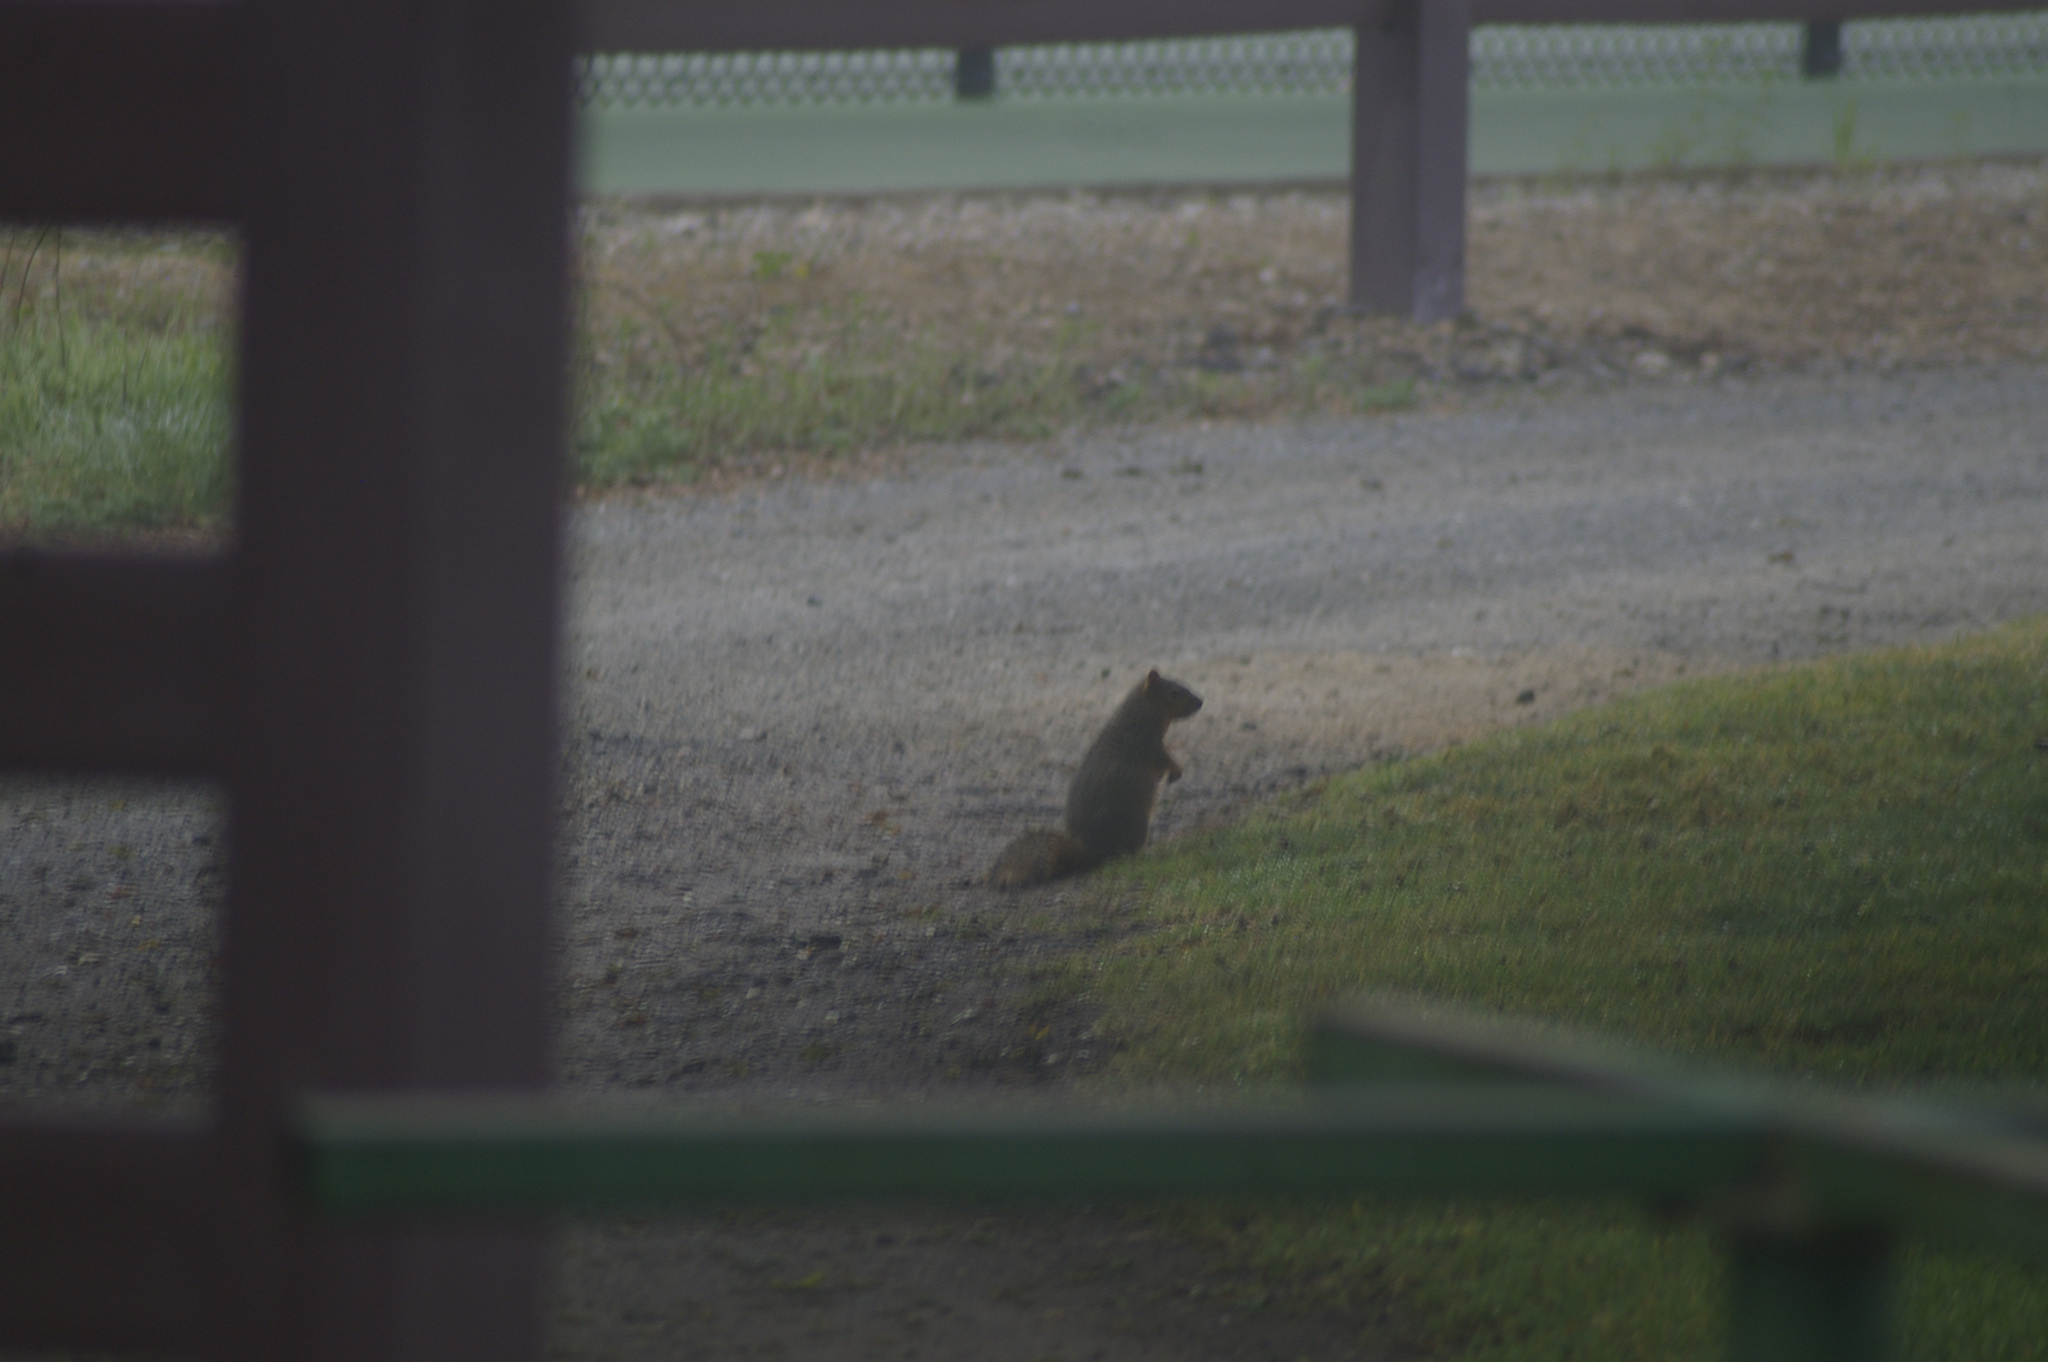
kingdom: Animalia
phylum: Chordata
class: Mammalia
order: Rodentia
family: Sciuridae
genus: Sciurus
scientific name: Sciurus niger
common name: Fox squirrel
